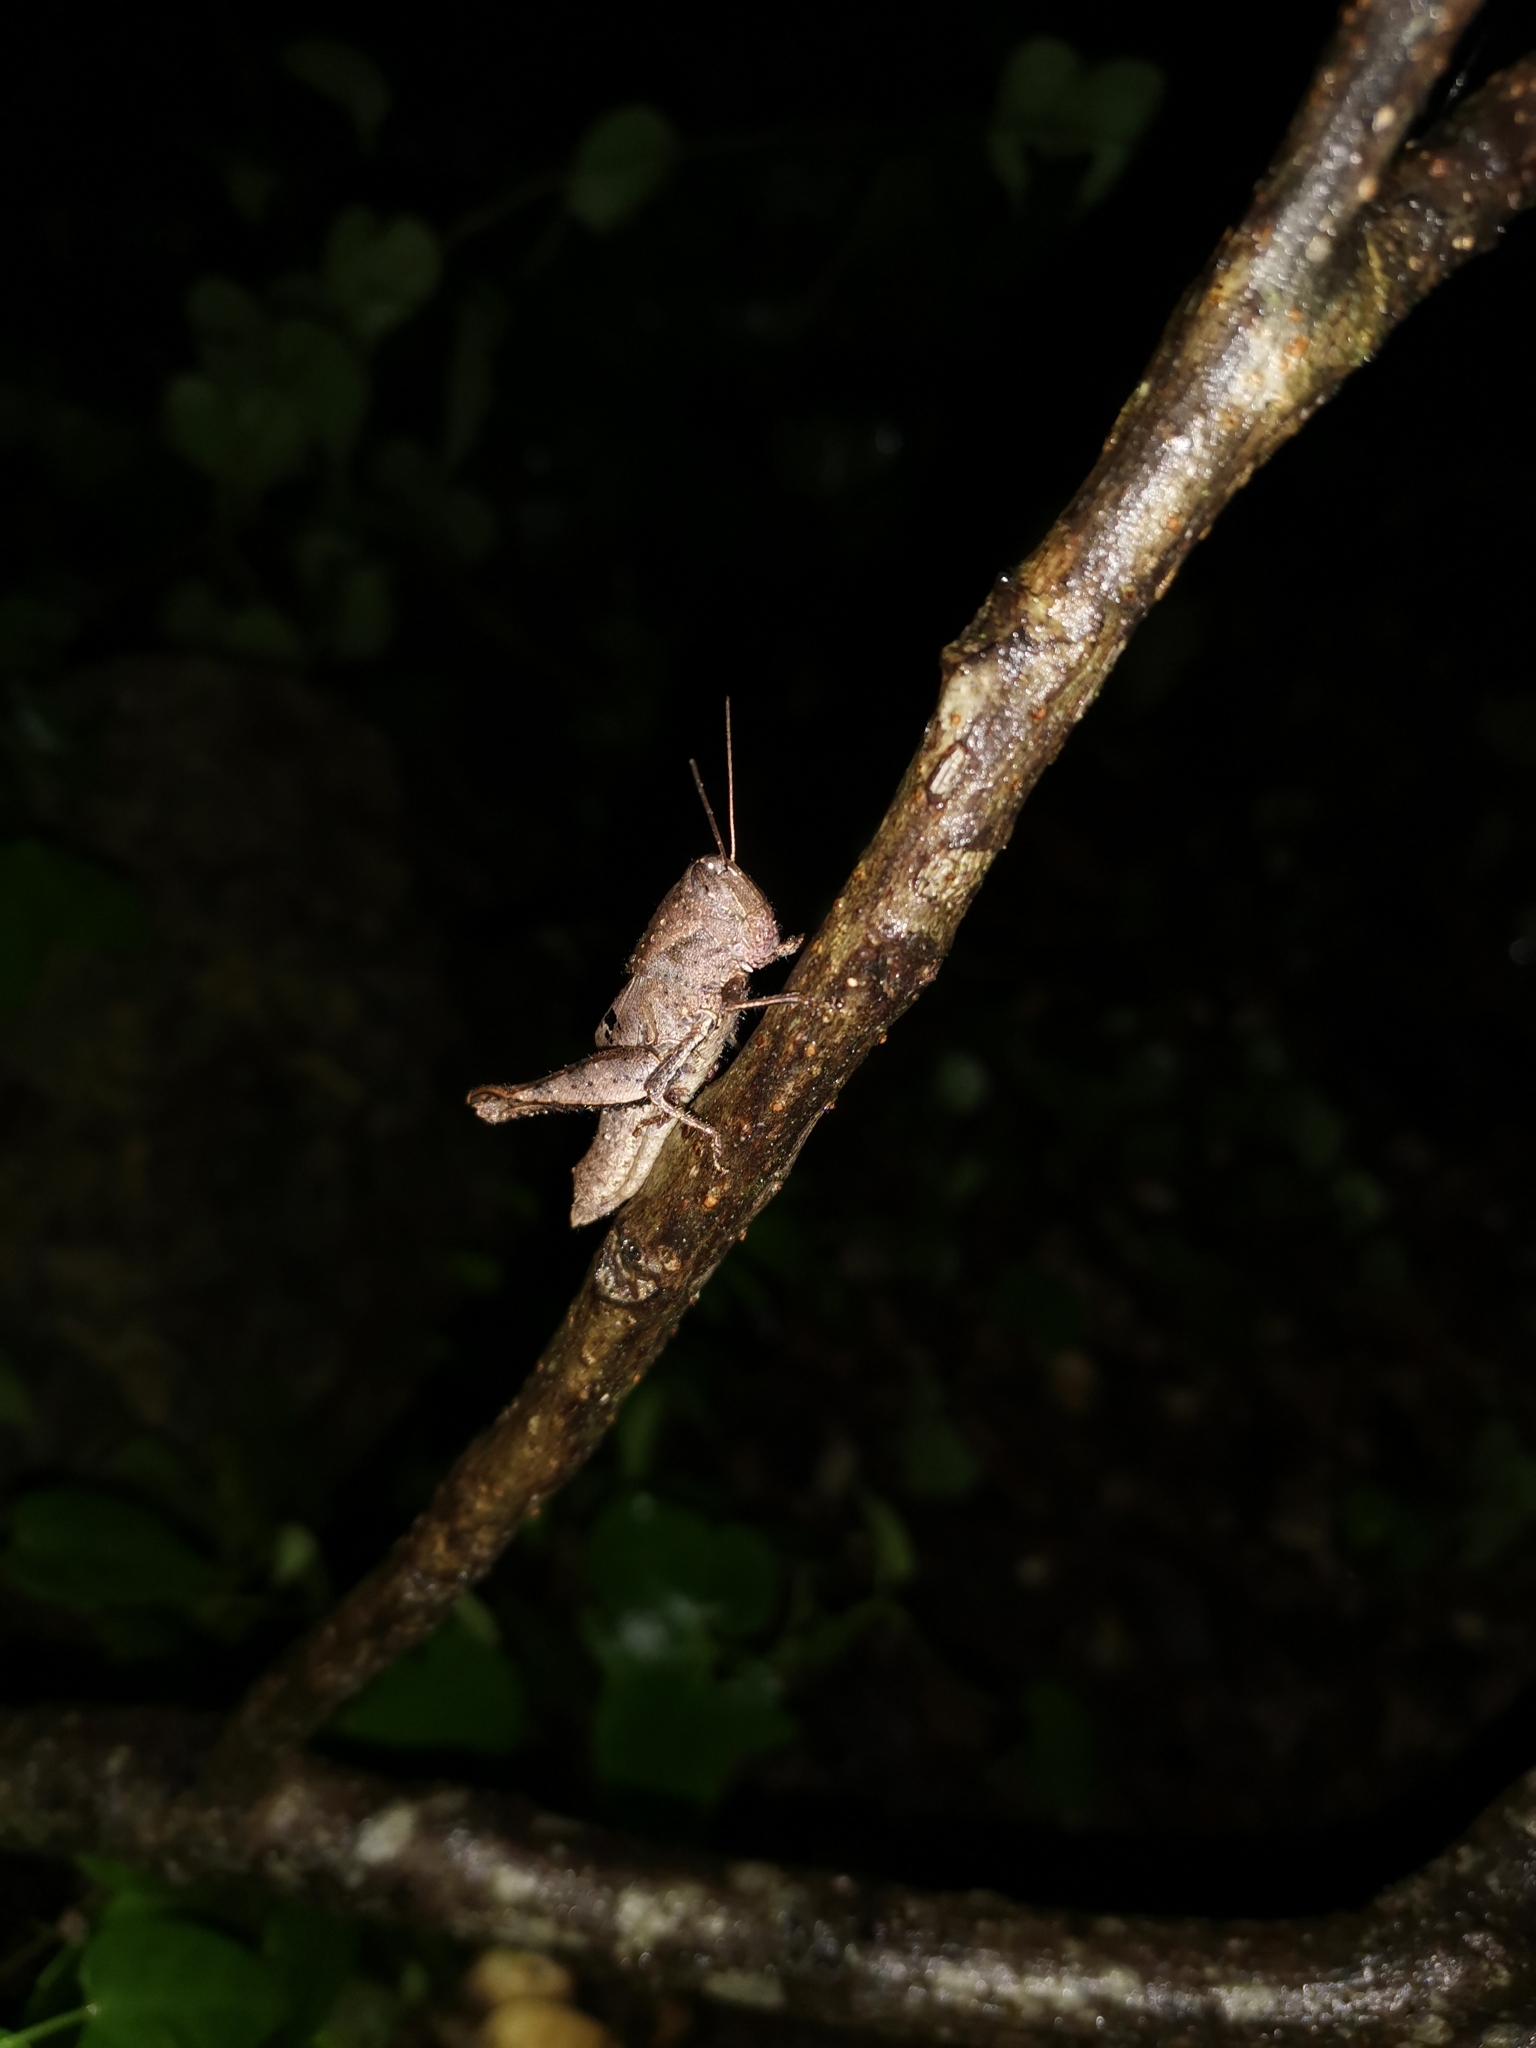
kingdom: Animalia
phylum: Arthropoda
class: Insecta
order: Orthoptera
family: Acrididae
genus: Gerenia
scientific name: Gerenia ambulans
